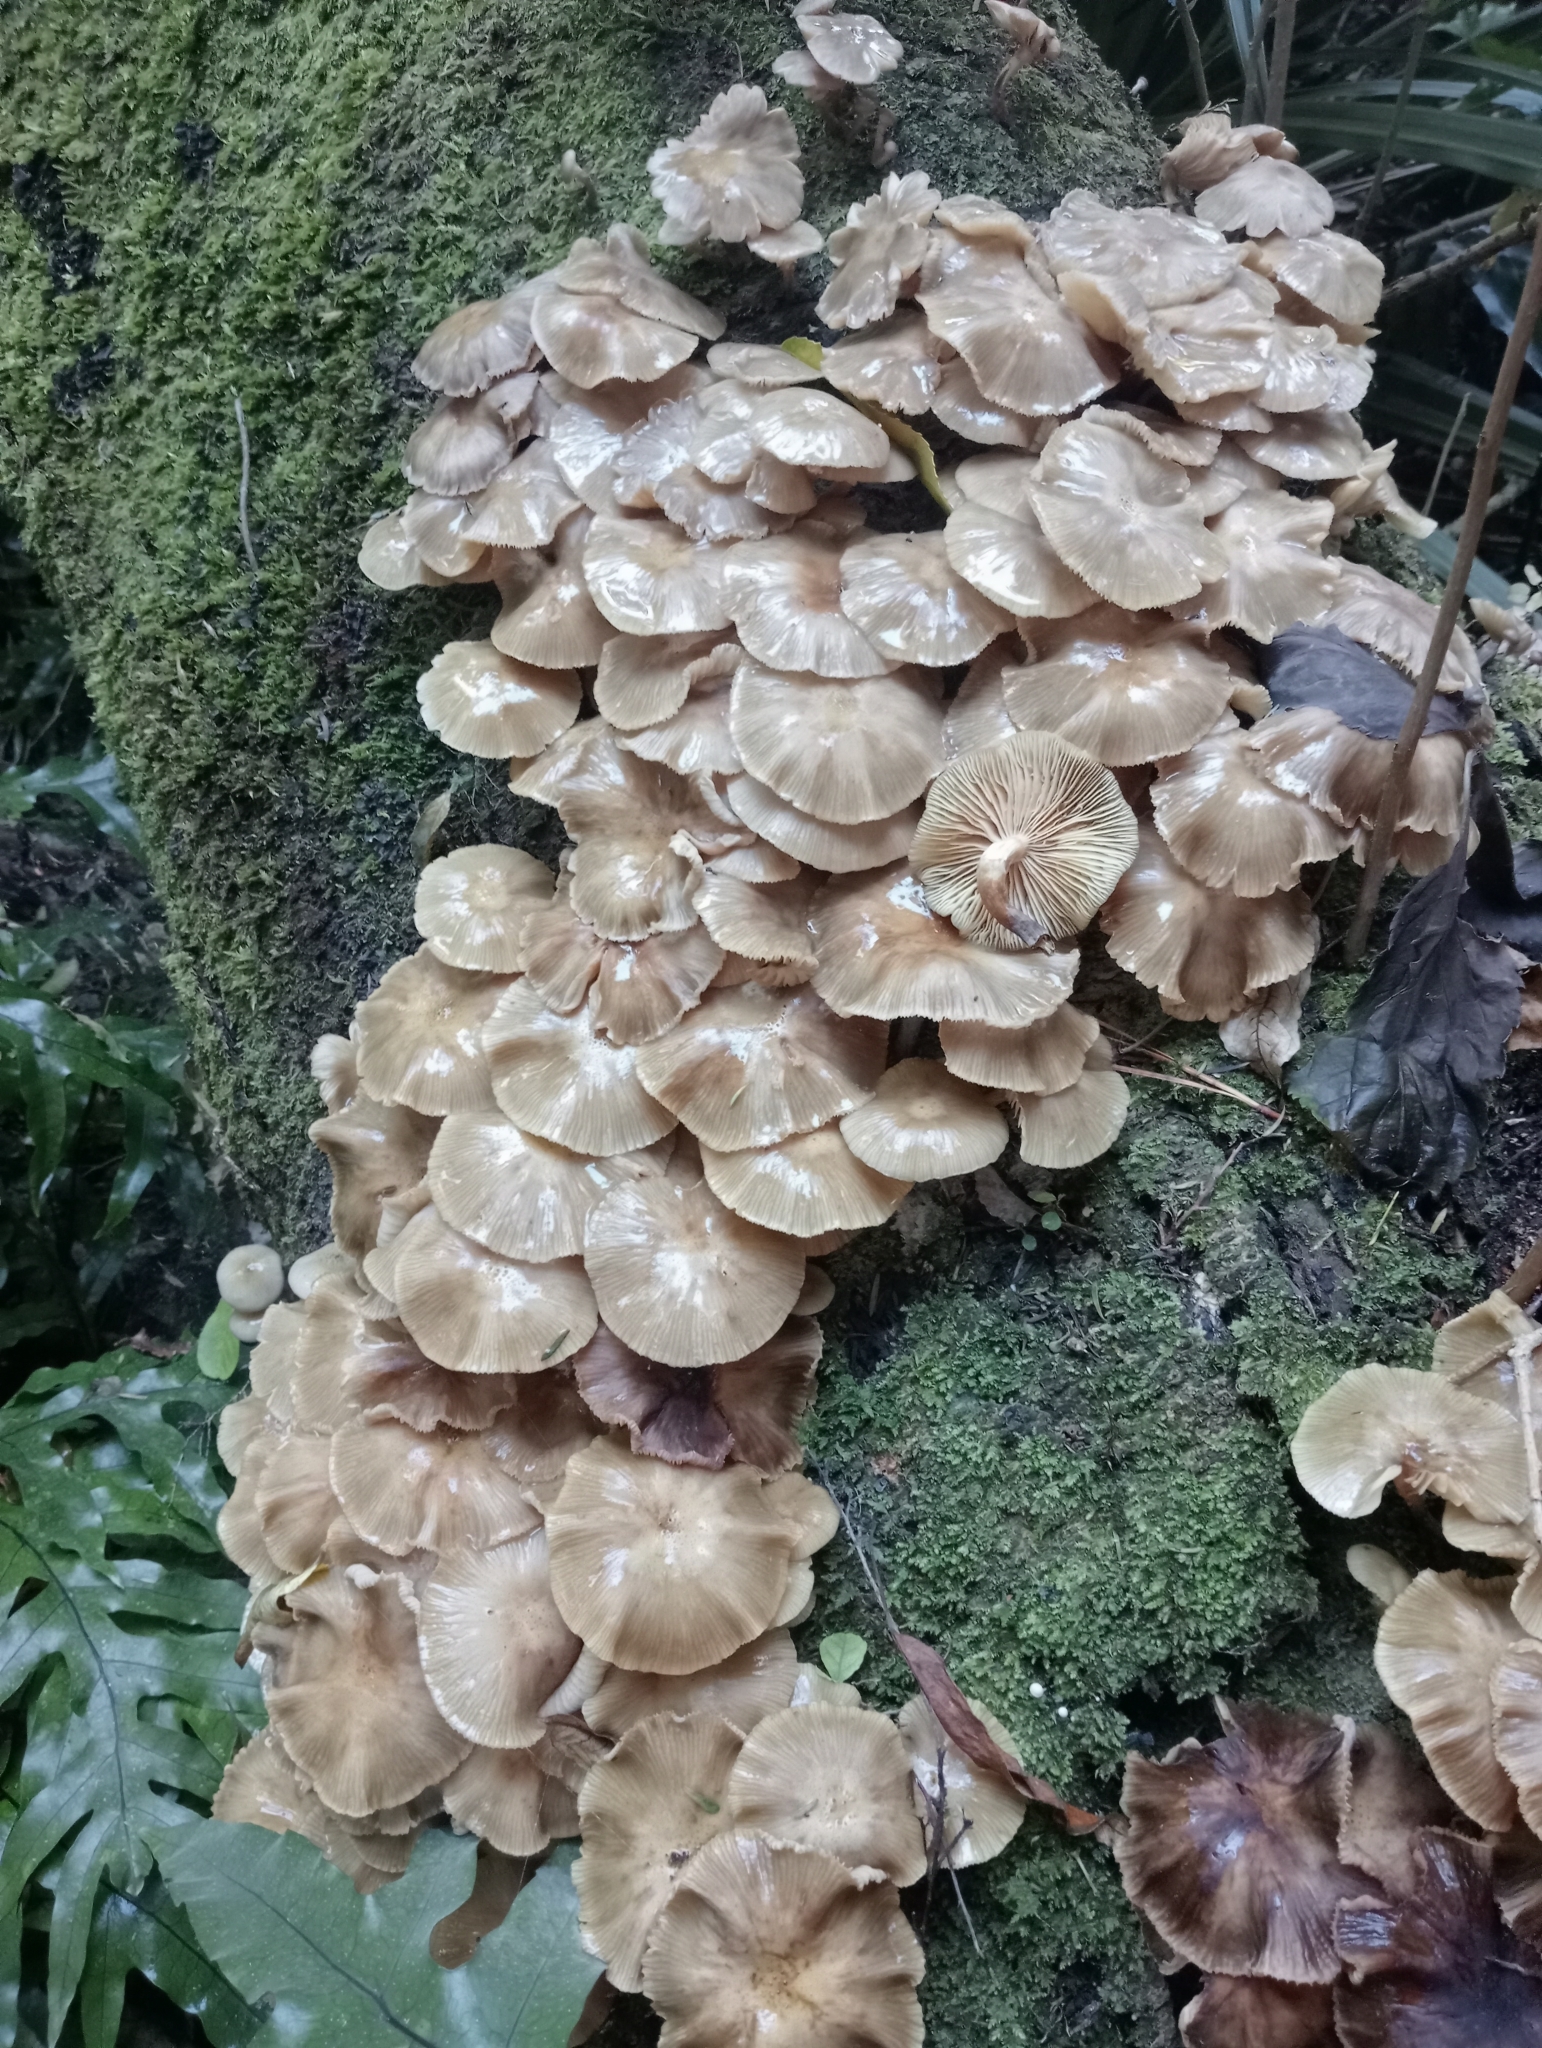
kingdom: Fungi
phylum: Basidiomycota
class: Agaricomycetes
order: Agaricales
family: Physalacriaceae
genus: Armillaria
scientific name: Armillaria novae-zelandiae
